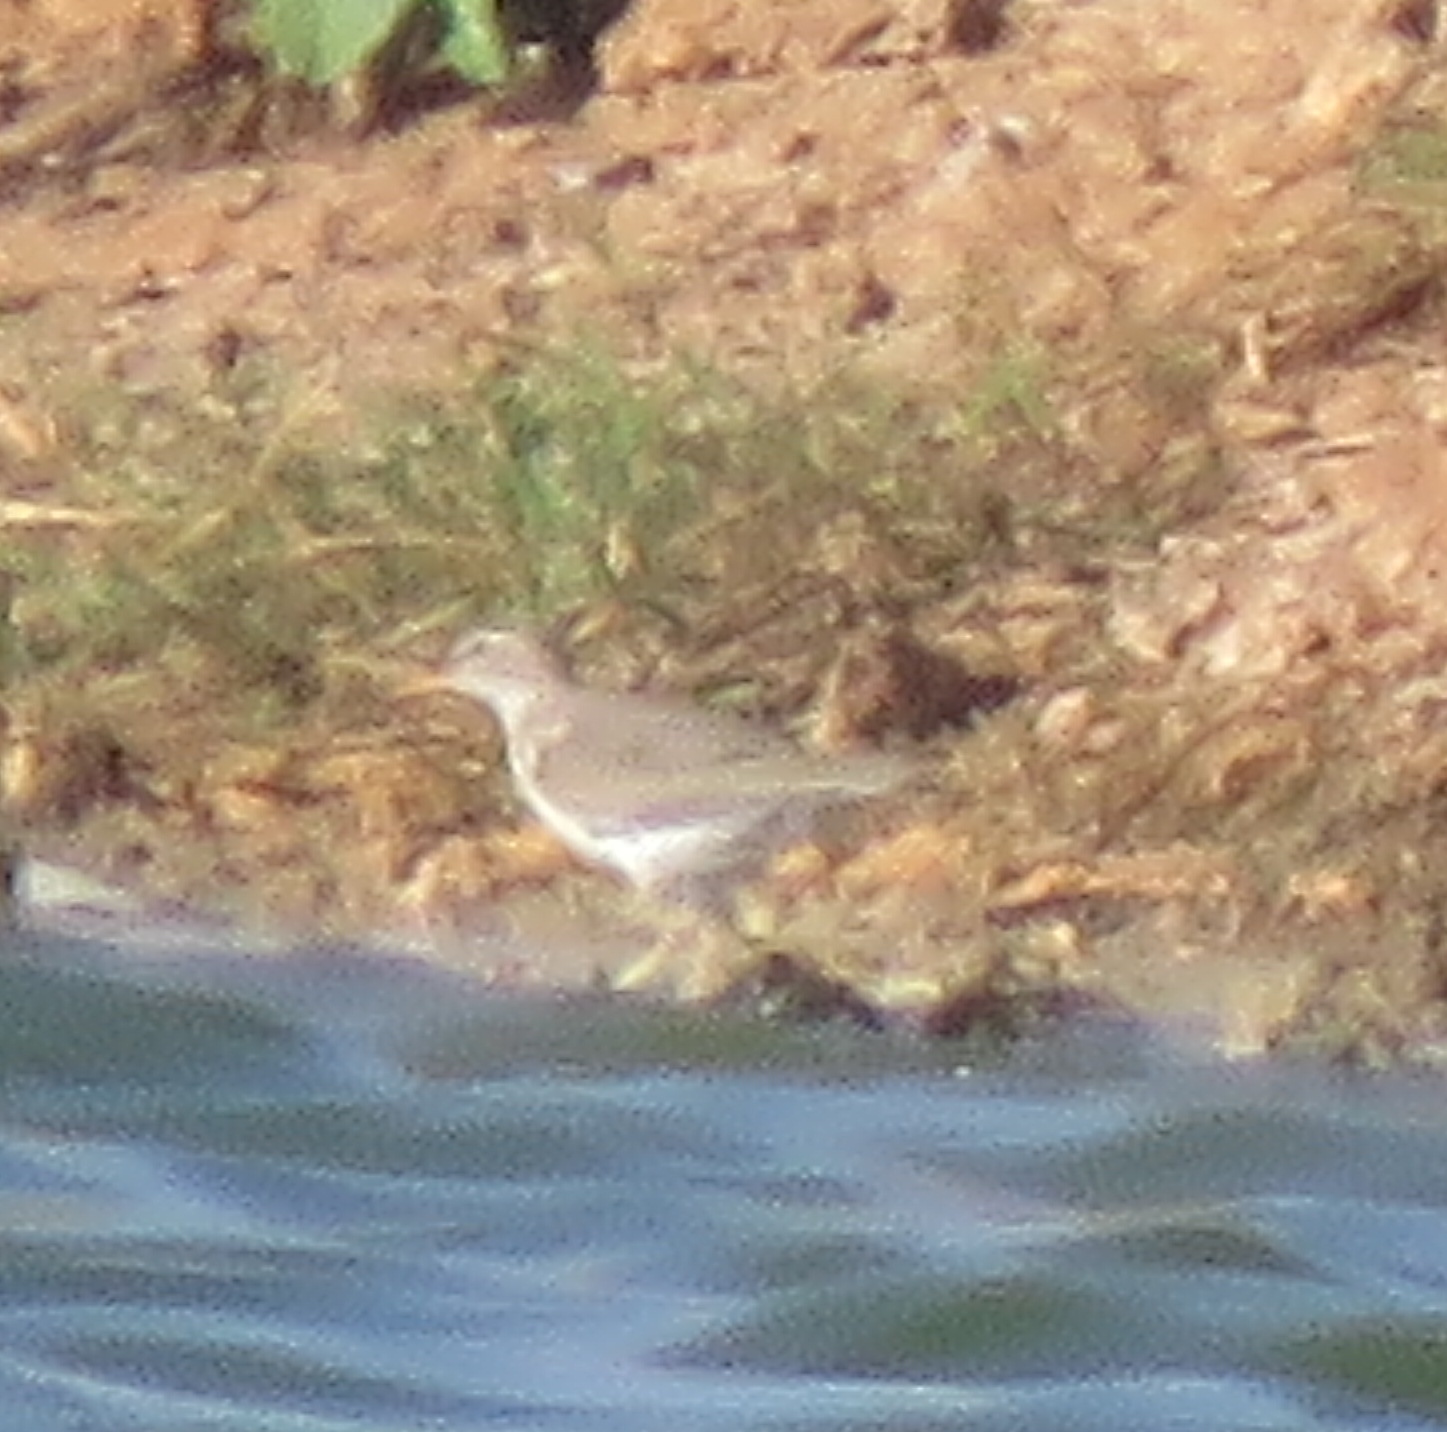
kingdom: Animalia
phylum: Chordata
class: Aves
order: Charadriiformes
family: Scolopacidae
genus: Actitis
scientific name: Actitis macularius
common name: Spotted sandpiper
